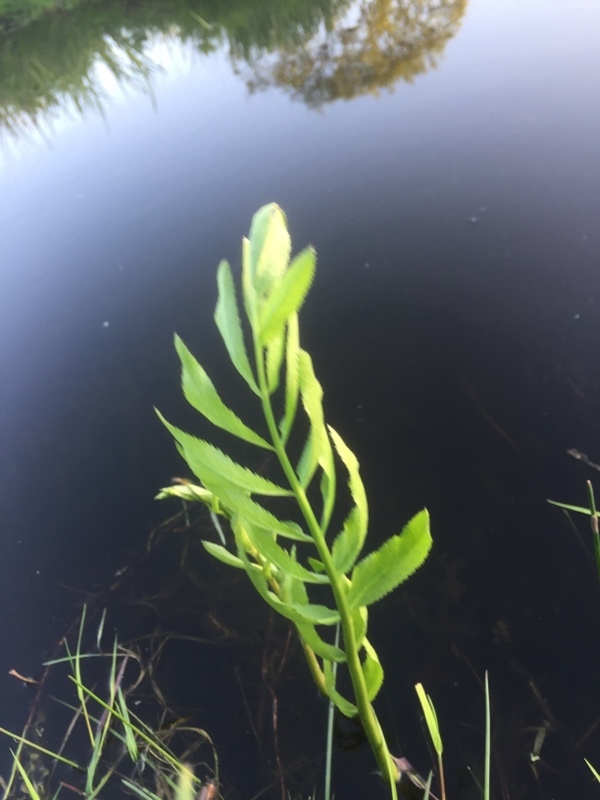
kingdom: Plantae
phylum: Tracheophyta
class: Magnoliopsida
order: Apiales
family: Apiaceae
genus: Sium
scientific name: Sium latifolium
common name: Greater water-parsnip
